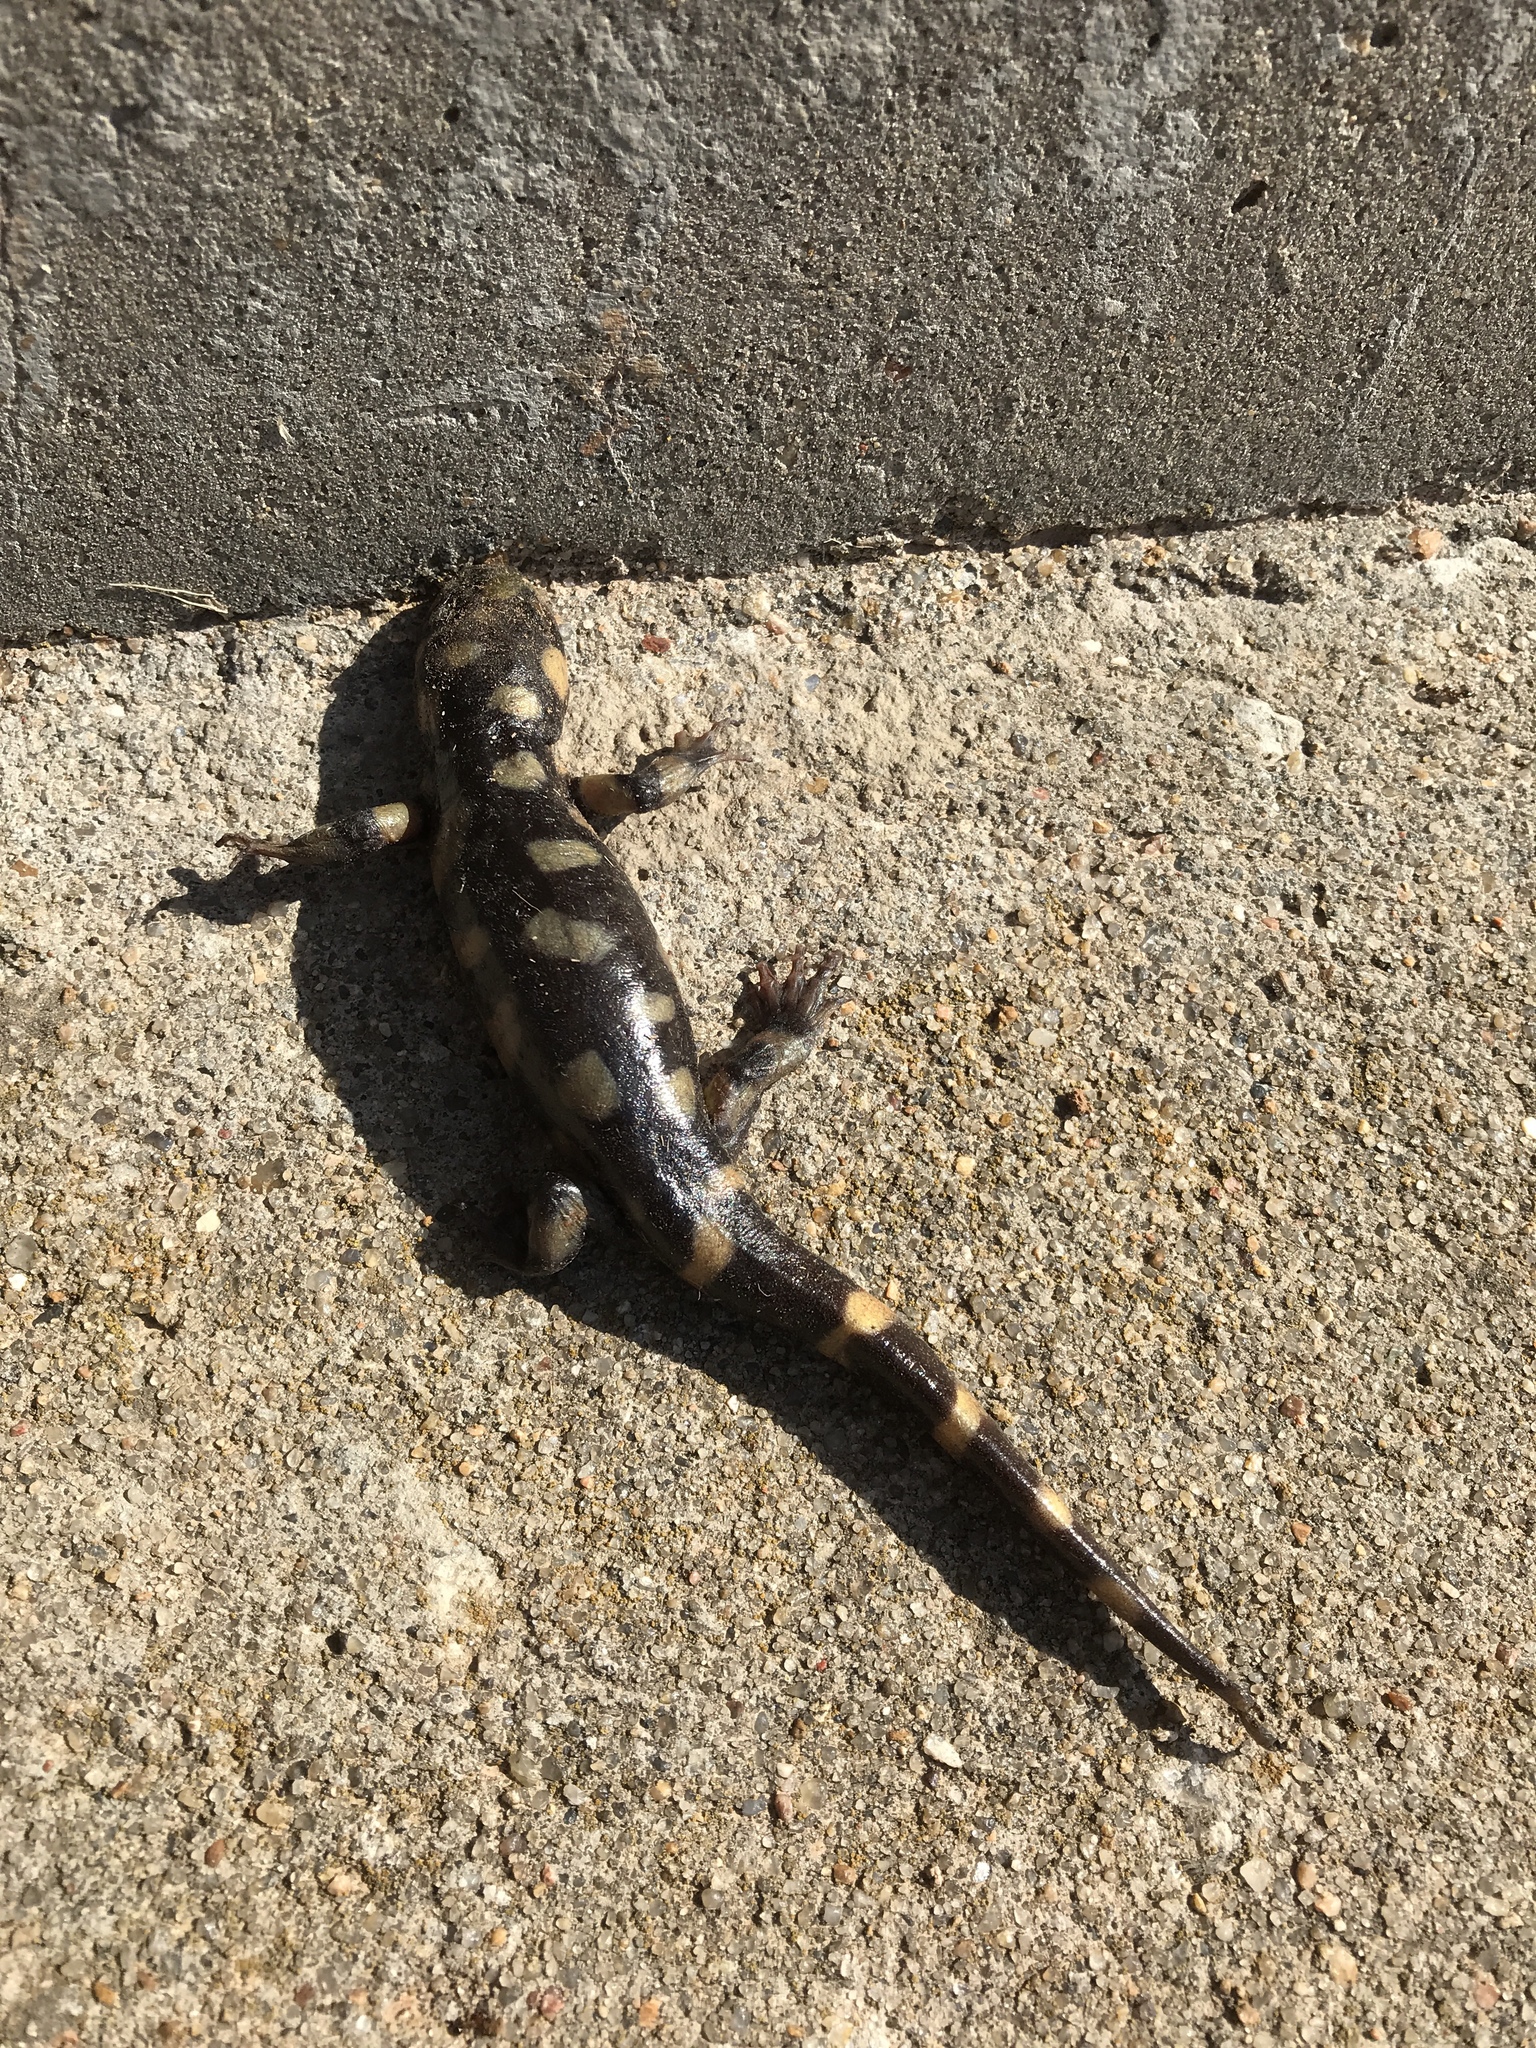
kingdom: Animalia
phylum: Chordata
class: Amphibia
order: Caudata
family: Ambystomatidae
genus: Ambystoma
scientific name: Ambystoma mavortium
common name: Western tiger salamander
